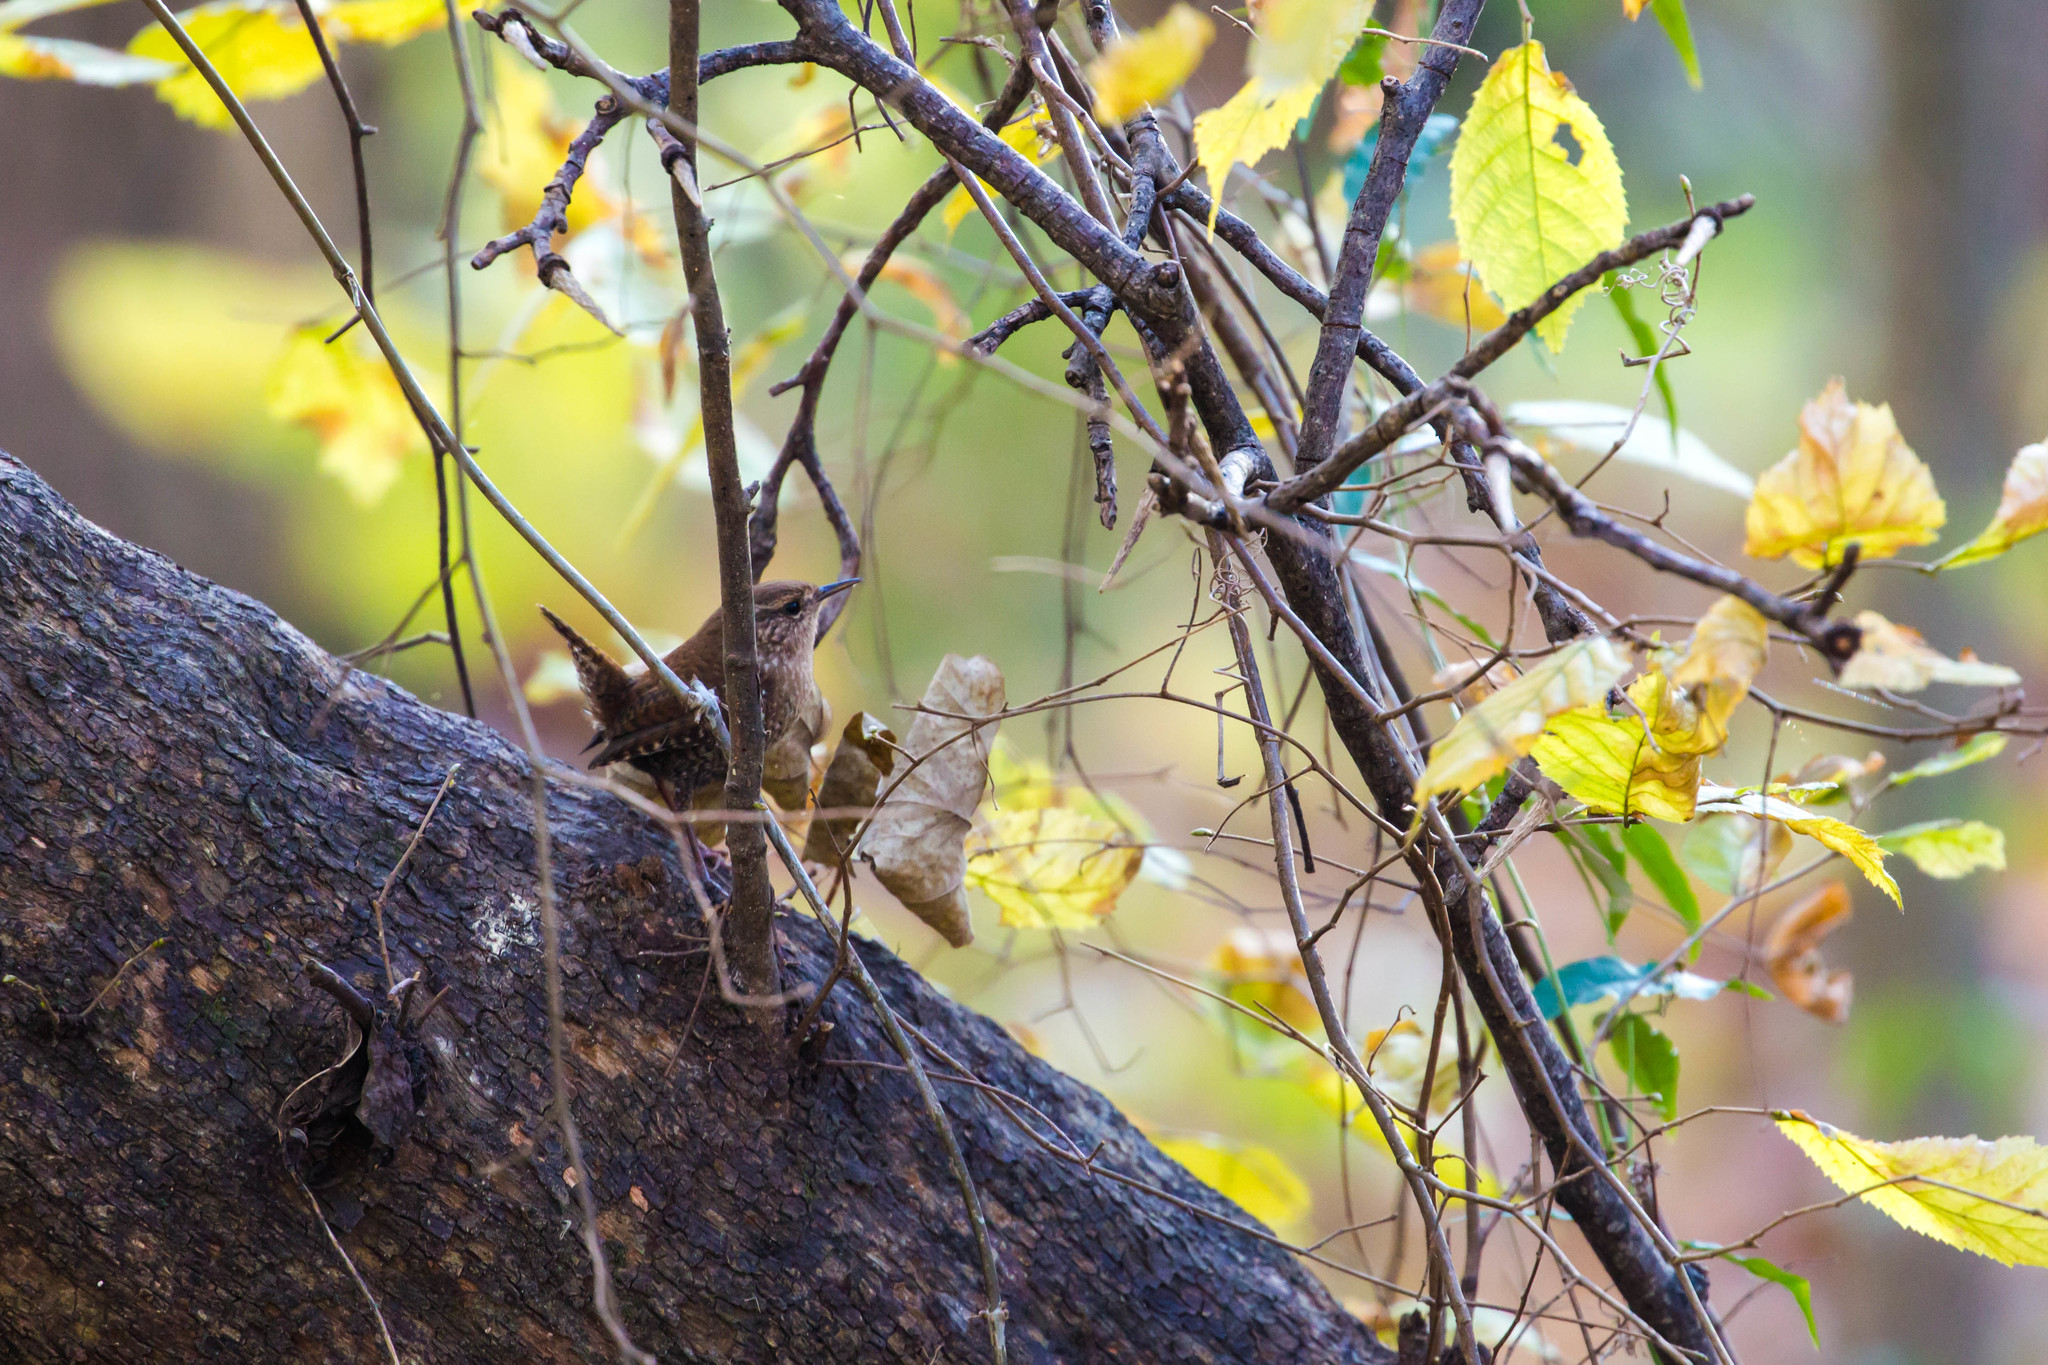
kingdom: Animalia
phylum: Chordata
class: Aves
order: Passeriformes
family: Troglodytidae
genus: Troglodytes
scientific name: Troglodytes hiemalis
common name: Winter wren
